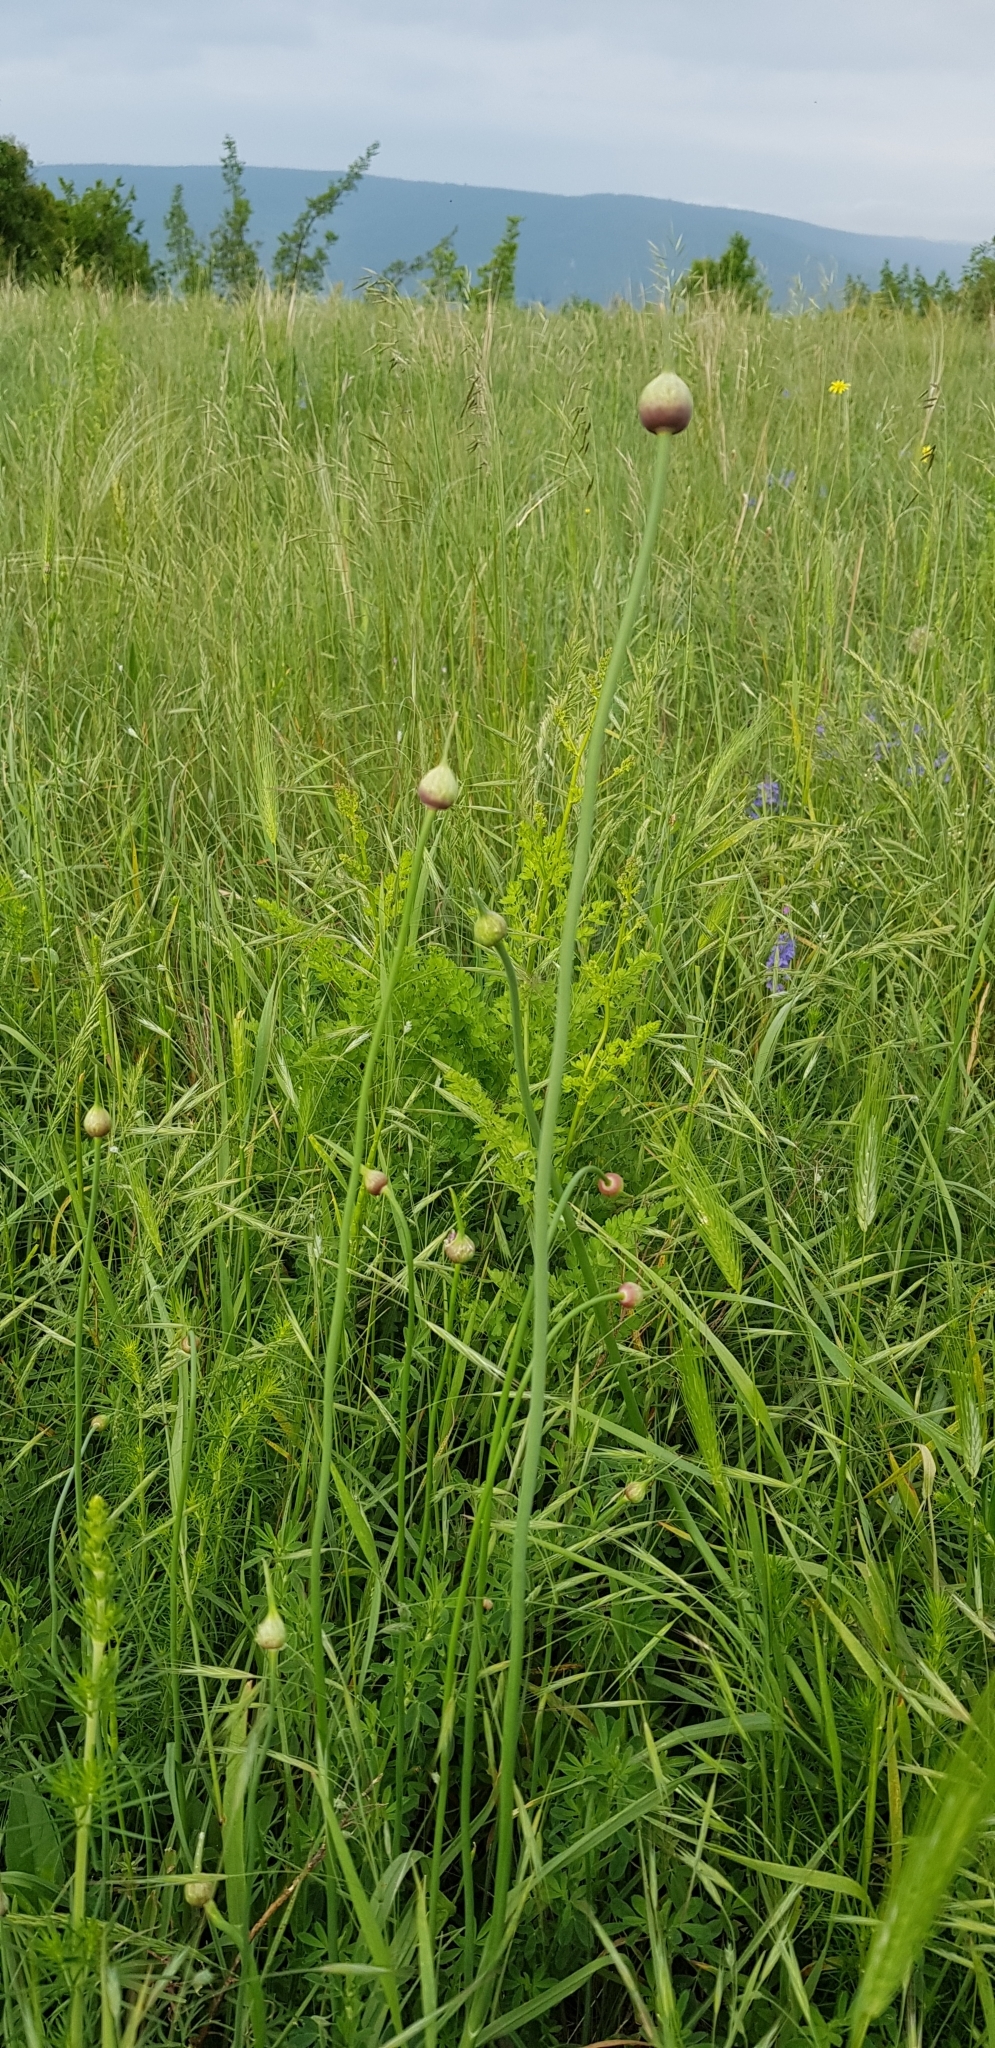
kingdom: Plantae
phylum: Tracheophyta
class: Liliopsida
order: Asparagales
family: Amaryllidaceae
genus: Allium
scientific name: Allium
